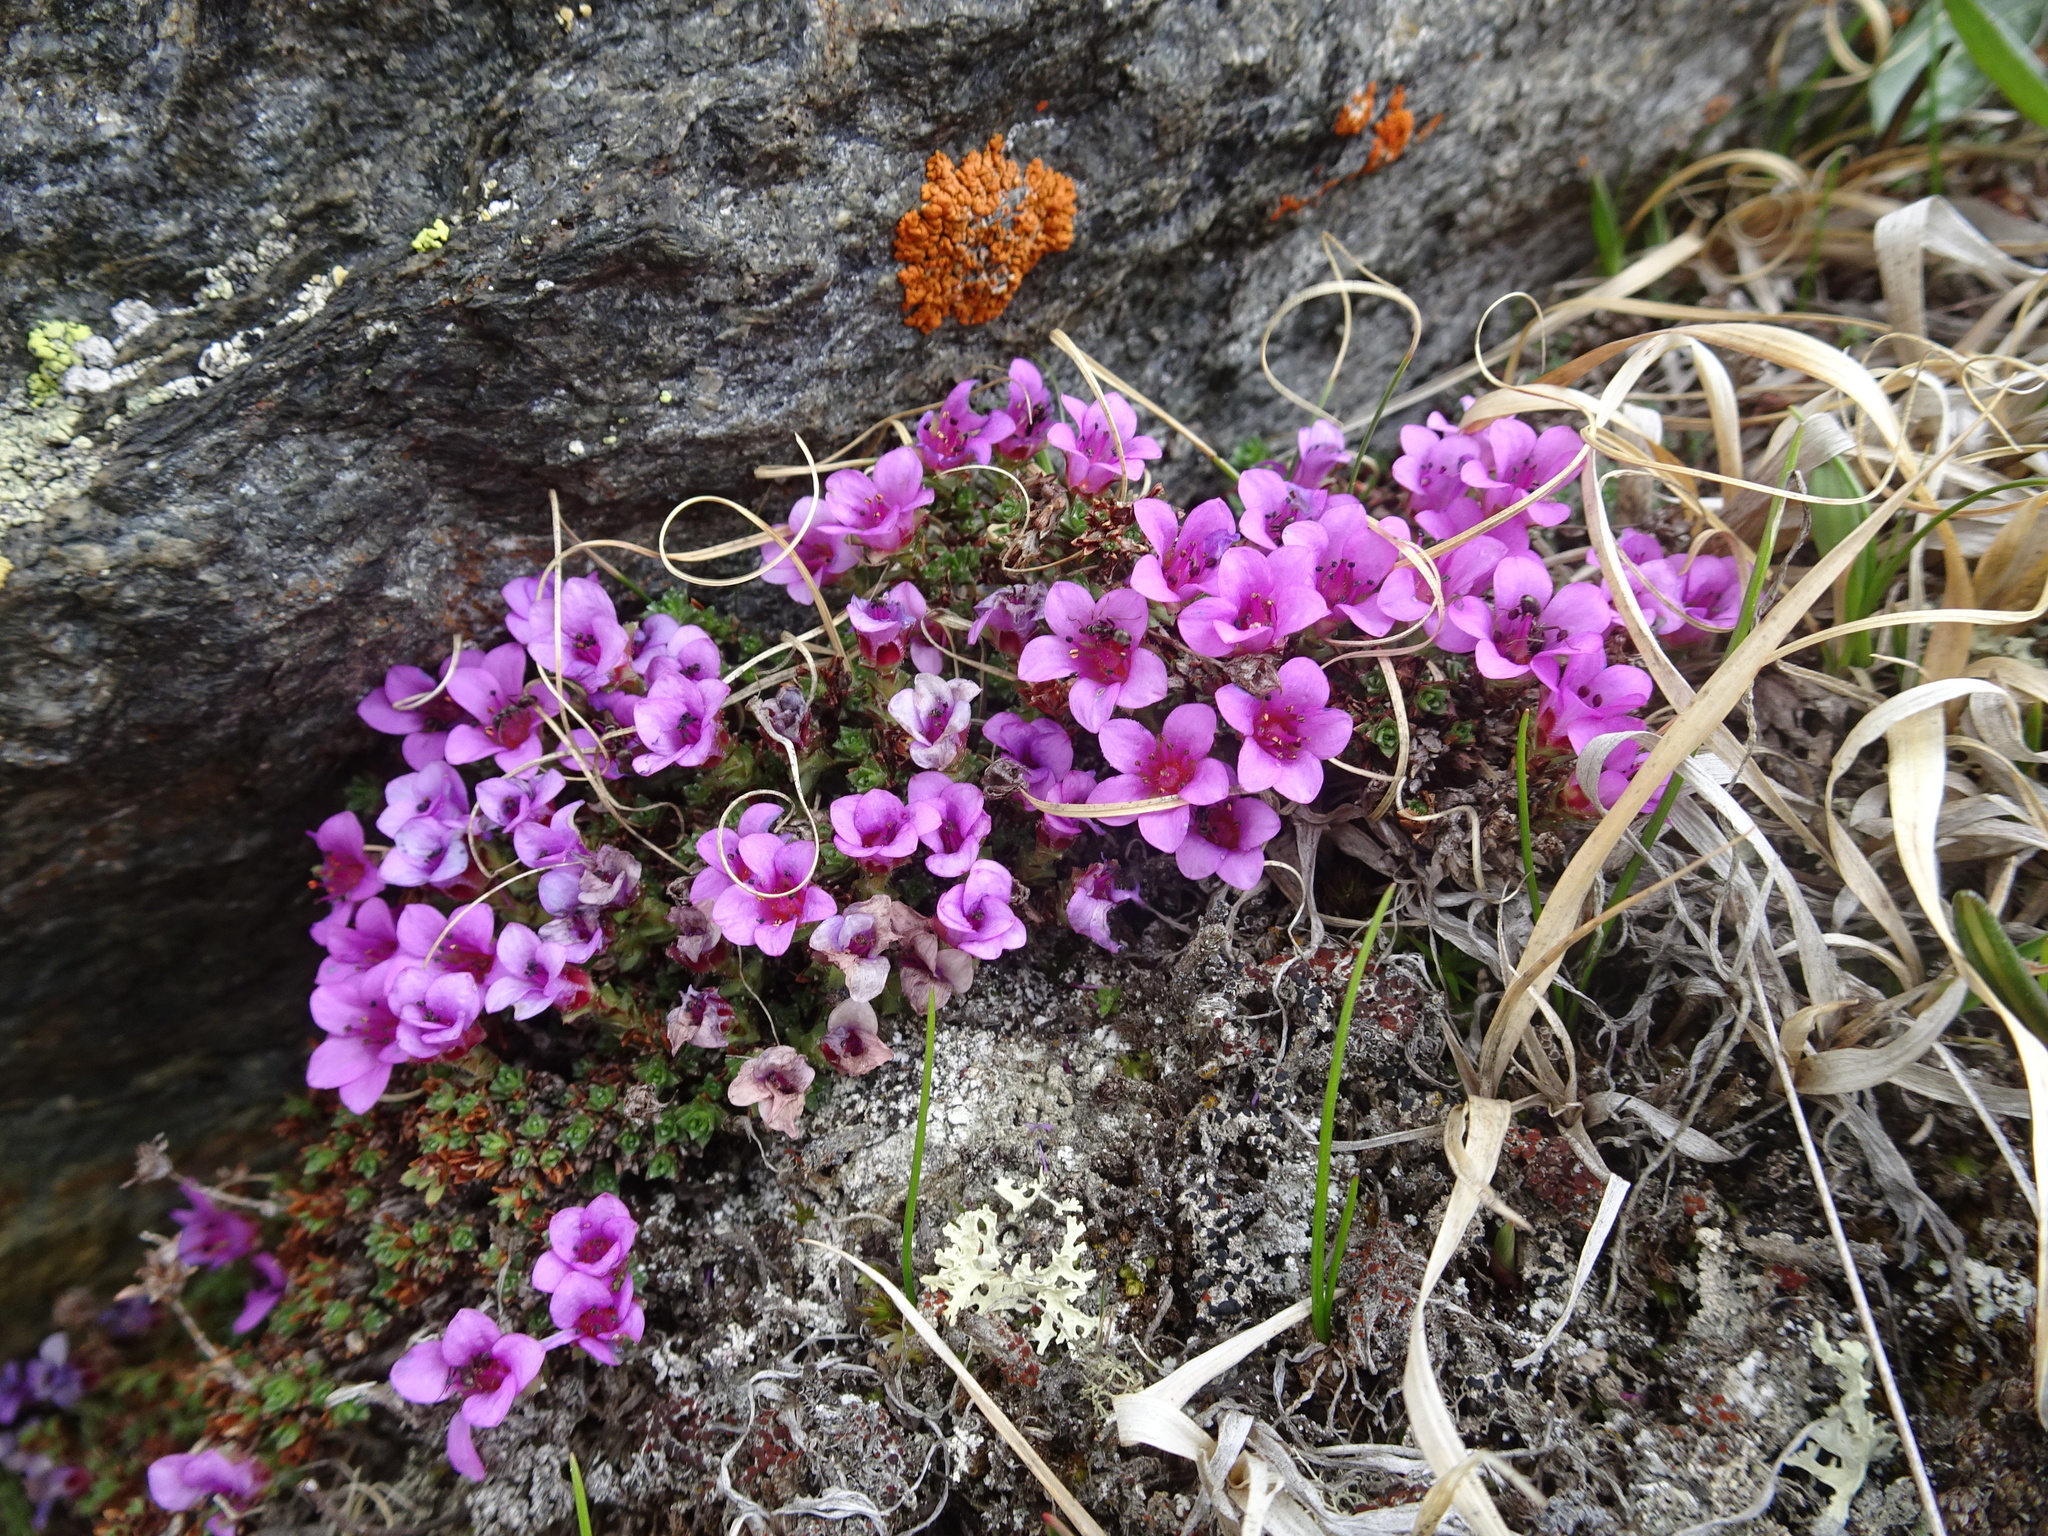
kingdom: Plantae
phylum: Tracheophyta
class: Magnoliopsida
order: Saxifragales
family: Saxifragaceae
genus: Saxifraga
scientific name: Saxifraga oppositifolia
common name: Purple saxifrage
